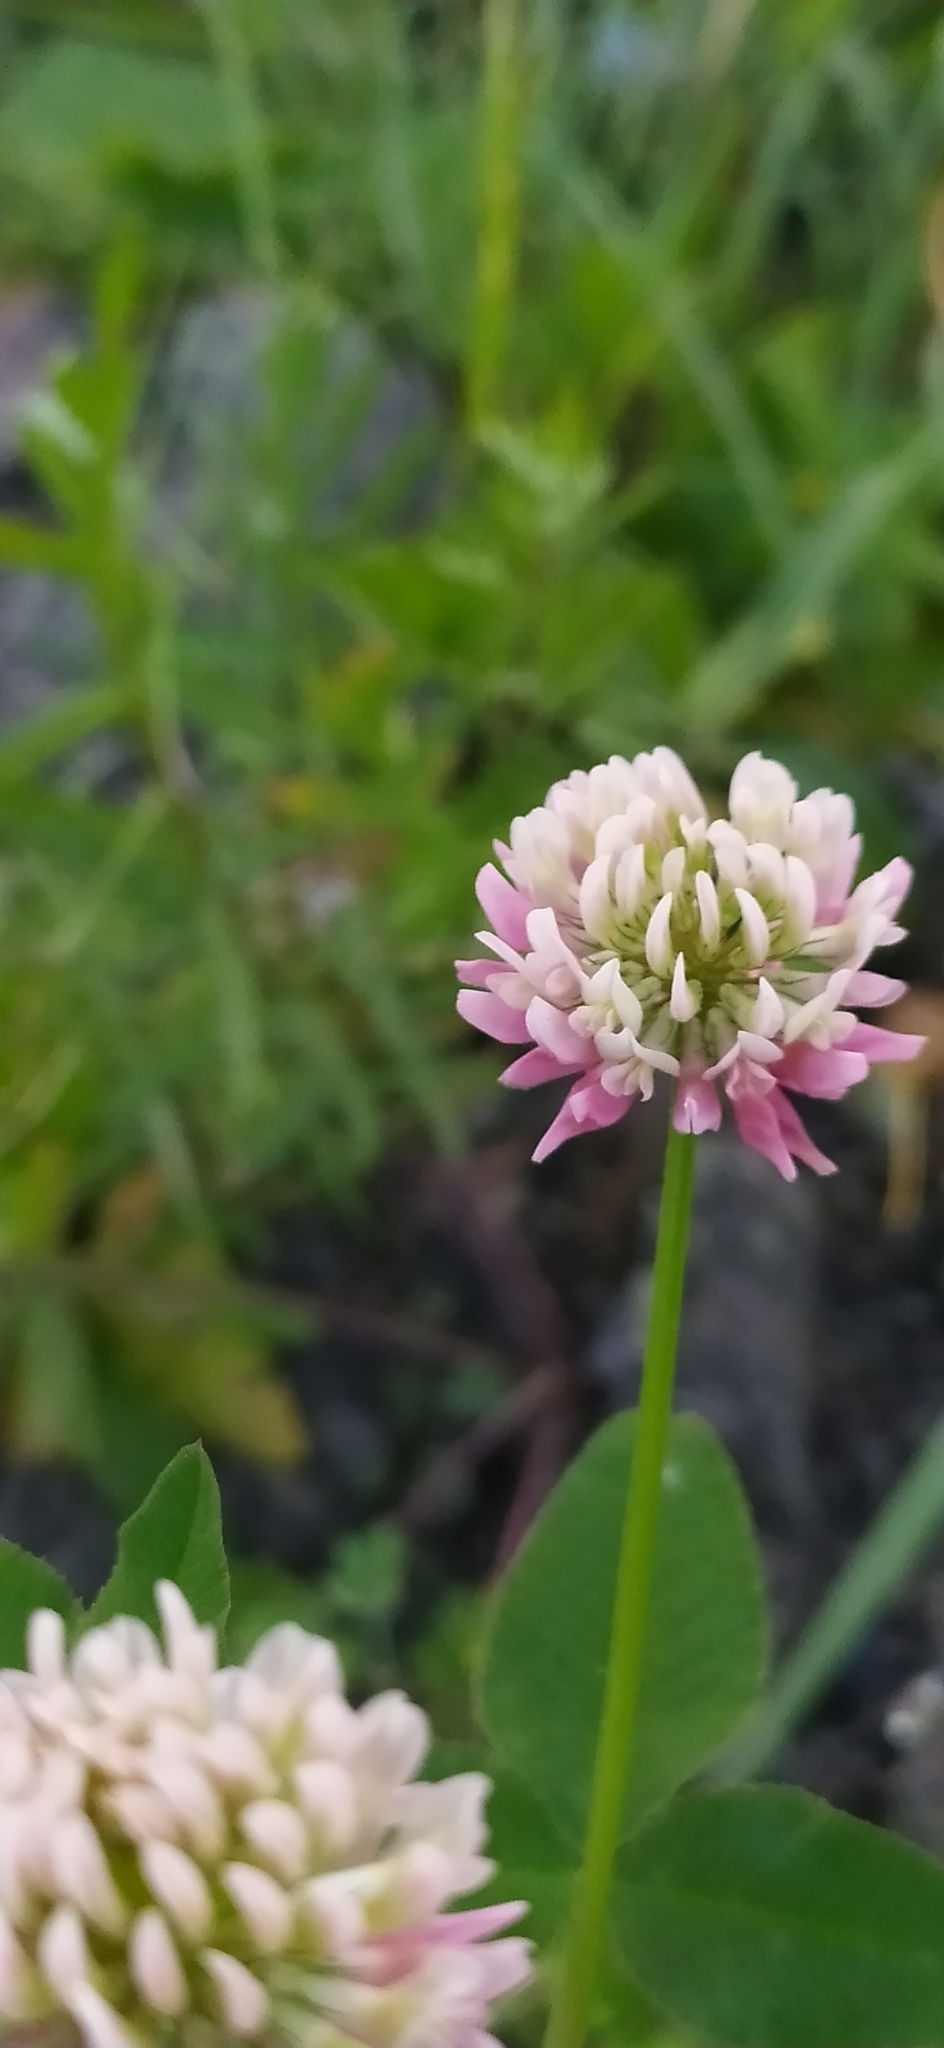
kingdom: Plantae
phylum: Tracheophyta
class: Magnoliopsida
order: Fabales
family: Fabaceae
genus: Trifolium
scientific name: Trifolium hybridum
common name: Alsike clover
